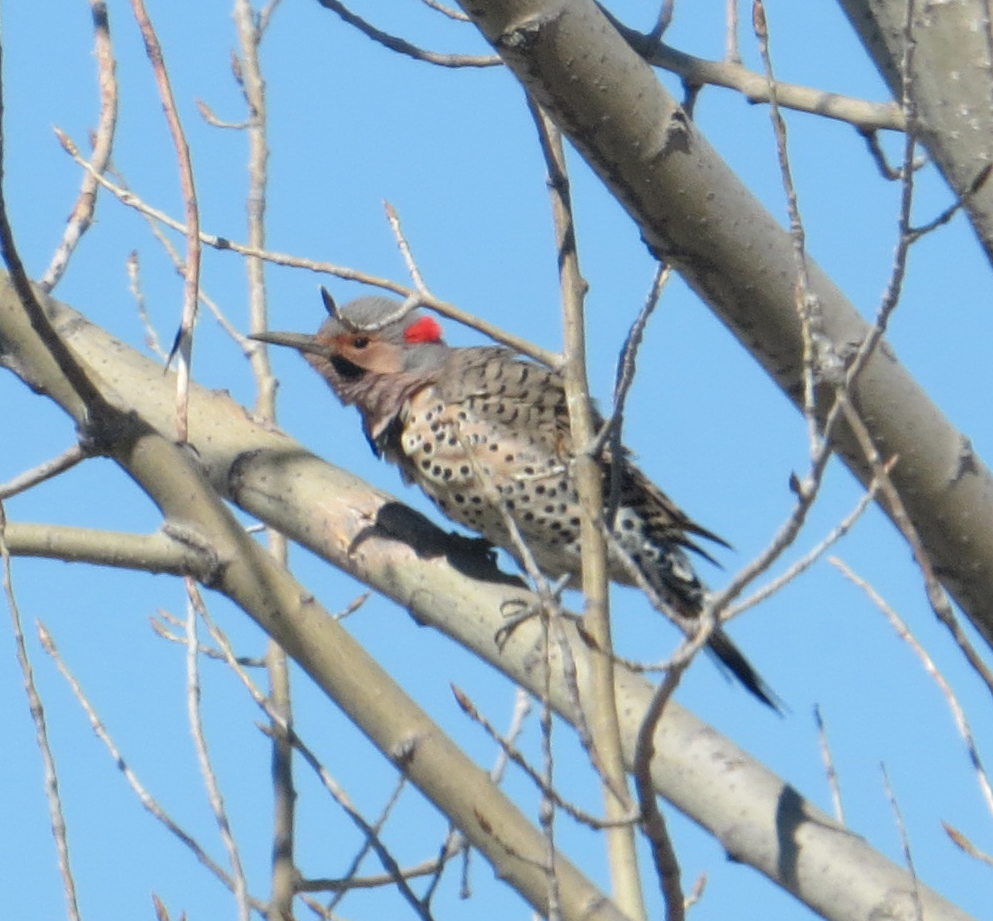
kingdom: Animalia
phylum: Chordata
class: Aves
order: Piciformes
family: Picidae
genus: Colaptes
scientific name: Colaptes auratus
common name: Northern flicker
